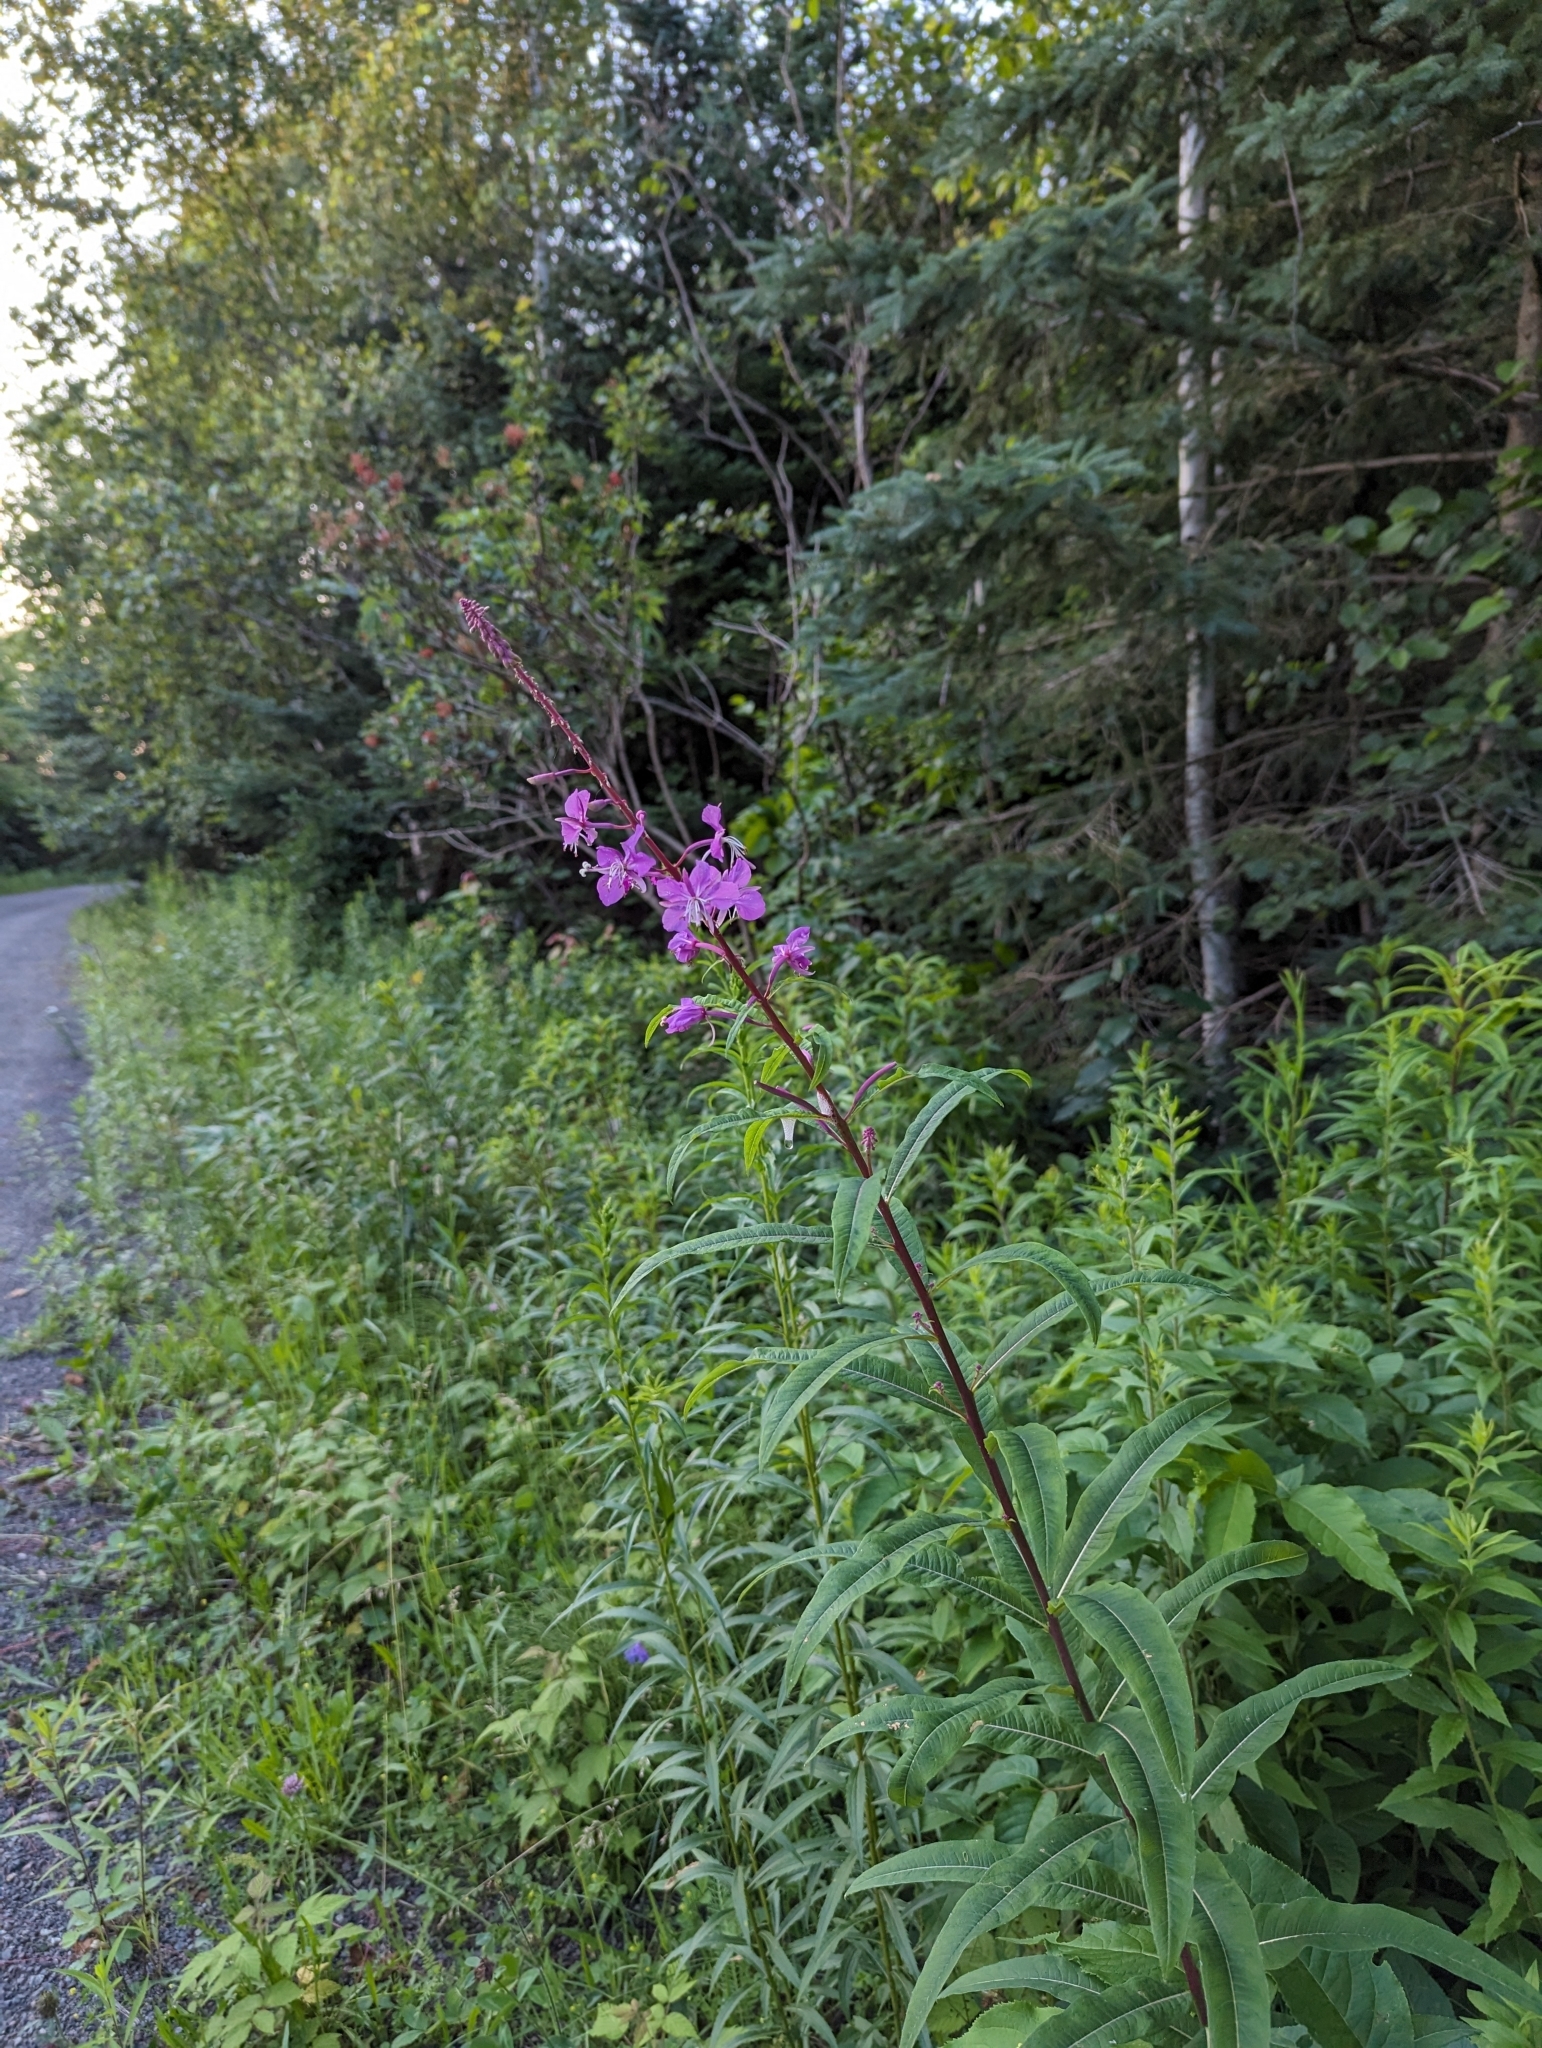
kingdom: Plantae
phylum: Tracheophyta
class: Magnoliopsida
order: Myrtales
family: Onagraceae
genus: Chamaenerion
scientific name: Chamaenerion angustifolium
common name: Fireweed
